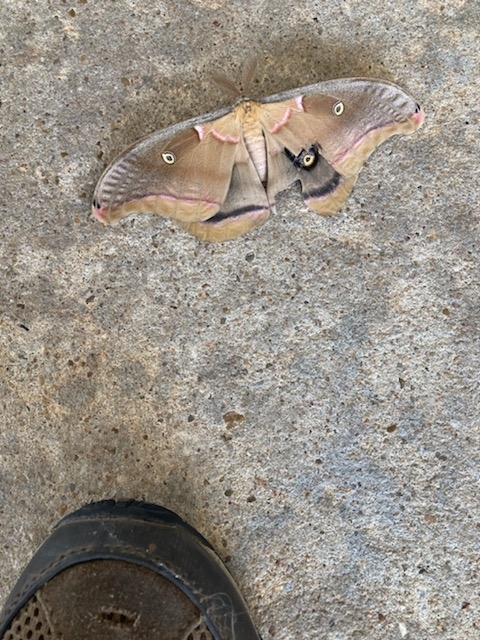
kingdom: Animalia
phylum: Arthropoda
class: Insecta
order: Lepidoptera
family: Saturniidae
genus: Antheraea
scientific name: Antheraea polyphemus
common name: Polyphemus moth
